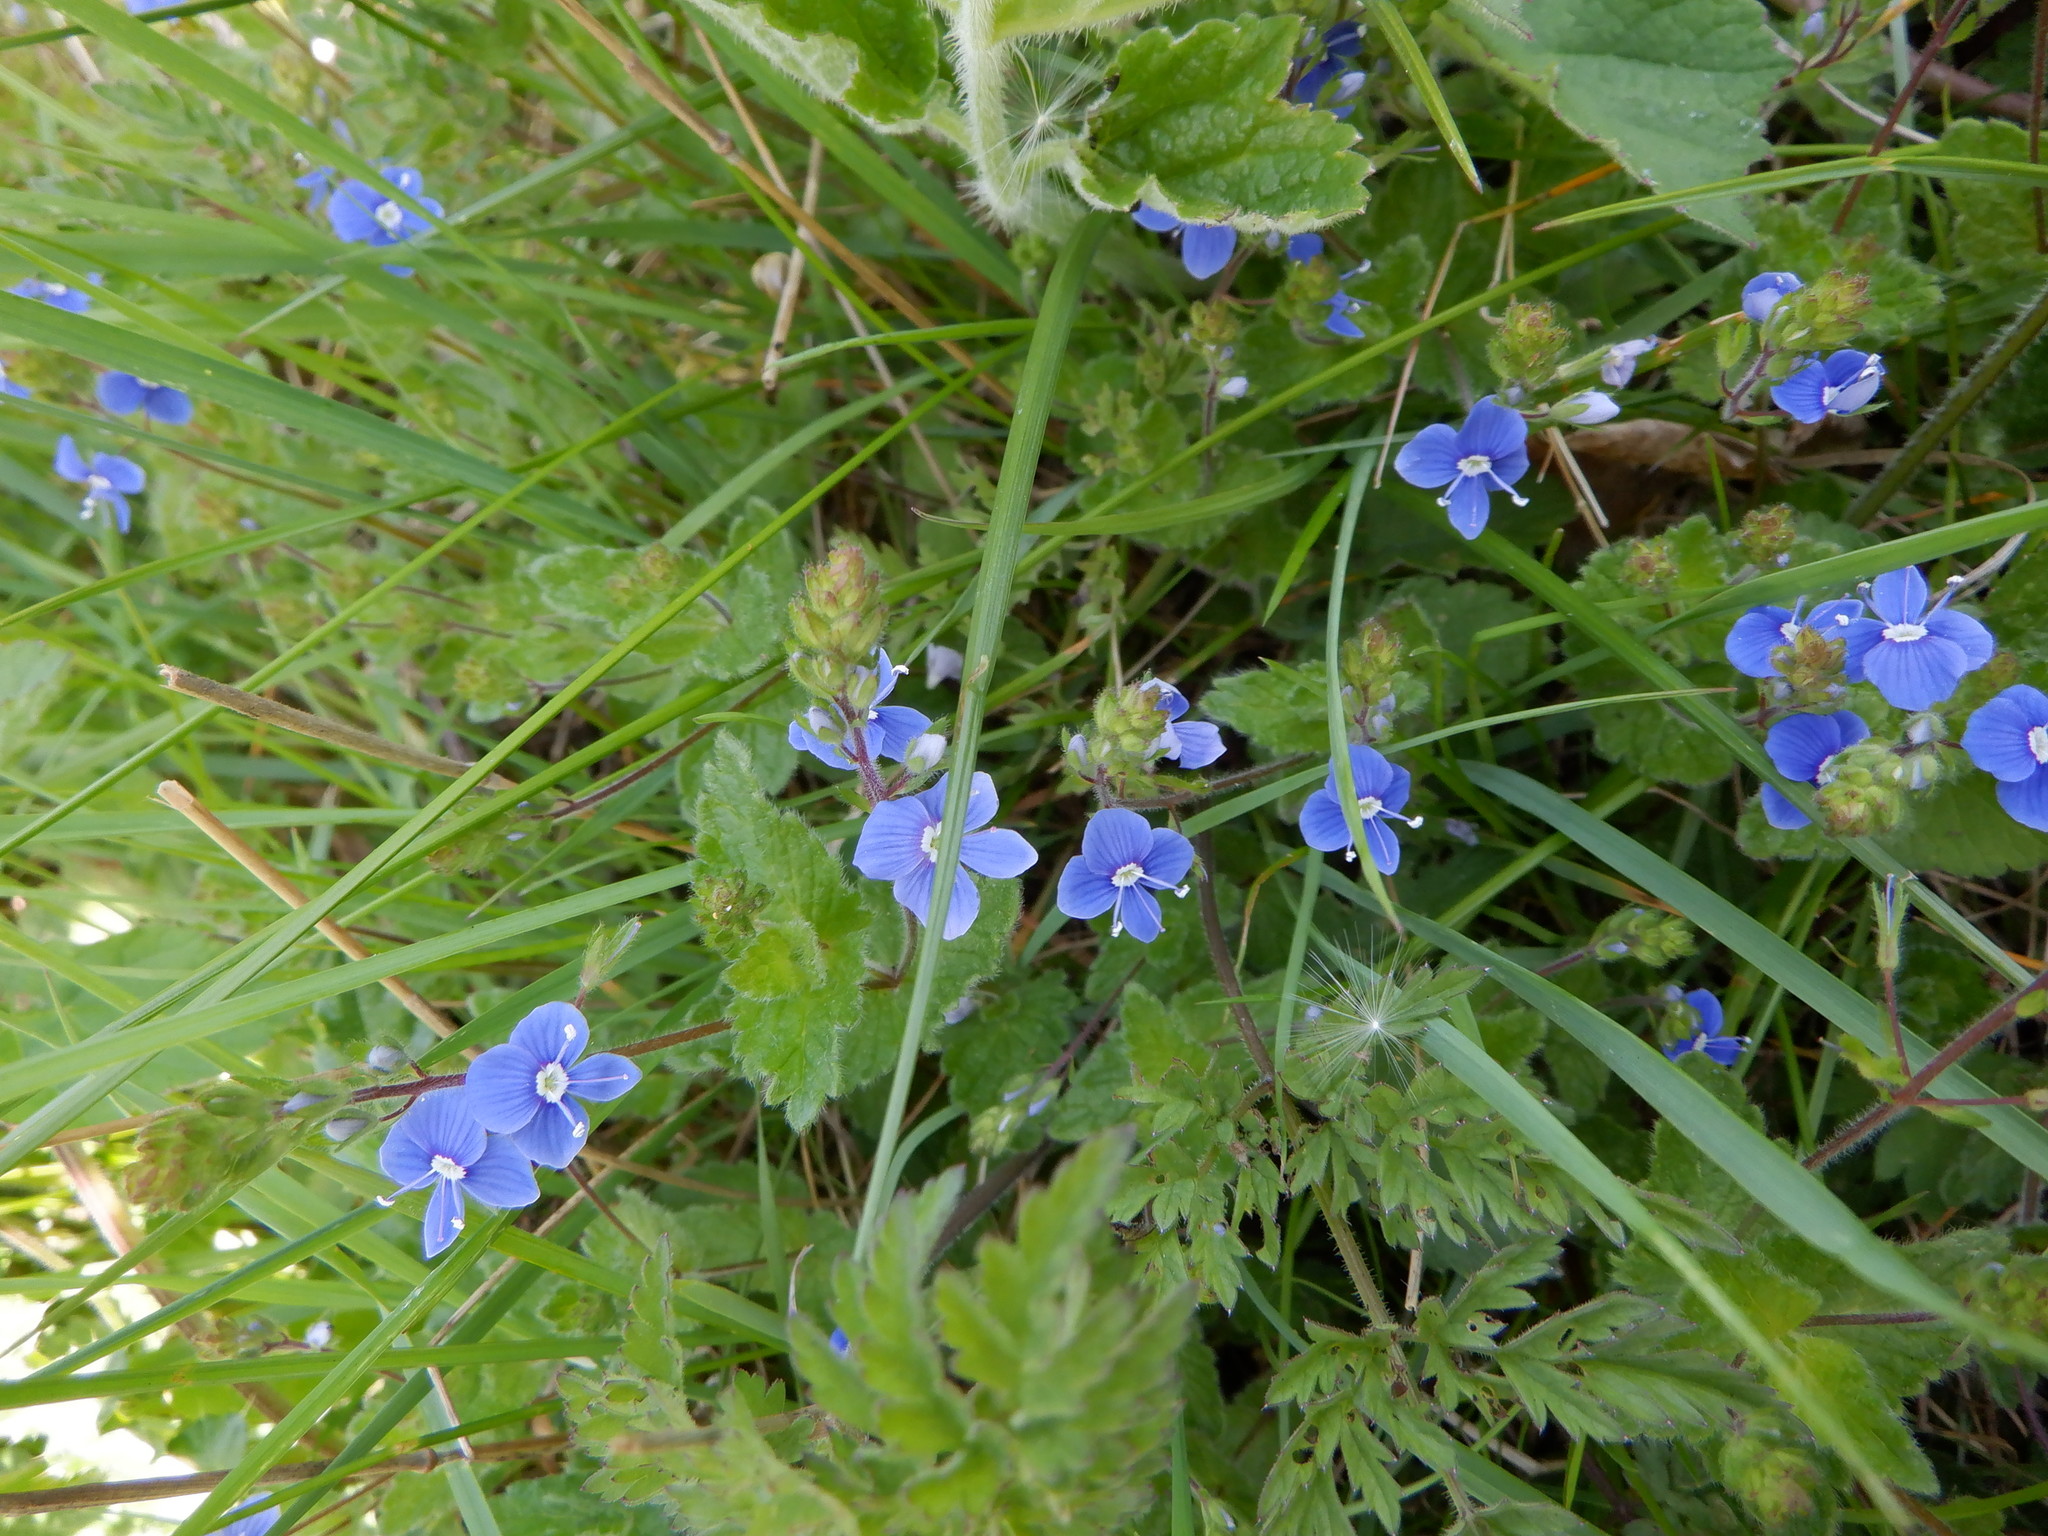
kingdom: Plantae
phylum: Tracheophyta
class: Magnoliopsida
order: Lamiales
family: Plantaginaceae
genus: Veronica
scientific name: Veronica chamaedrys
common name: Germander speedwell
